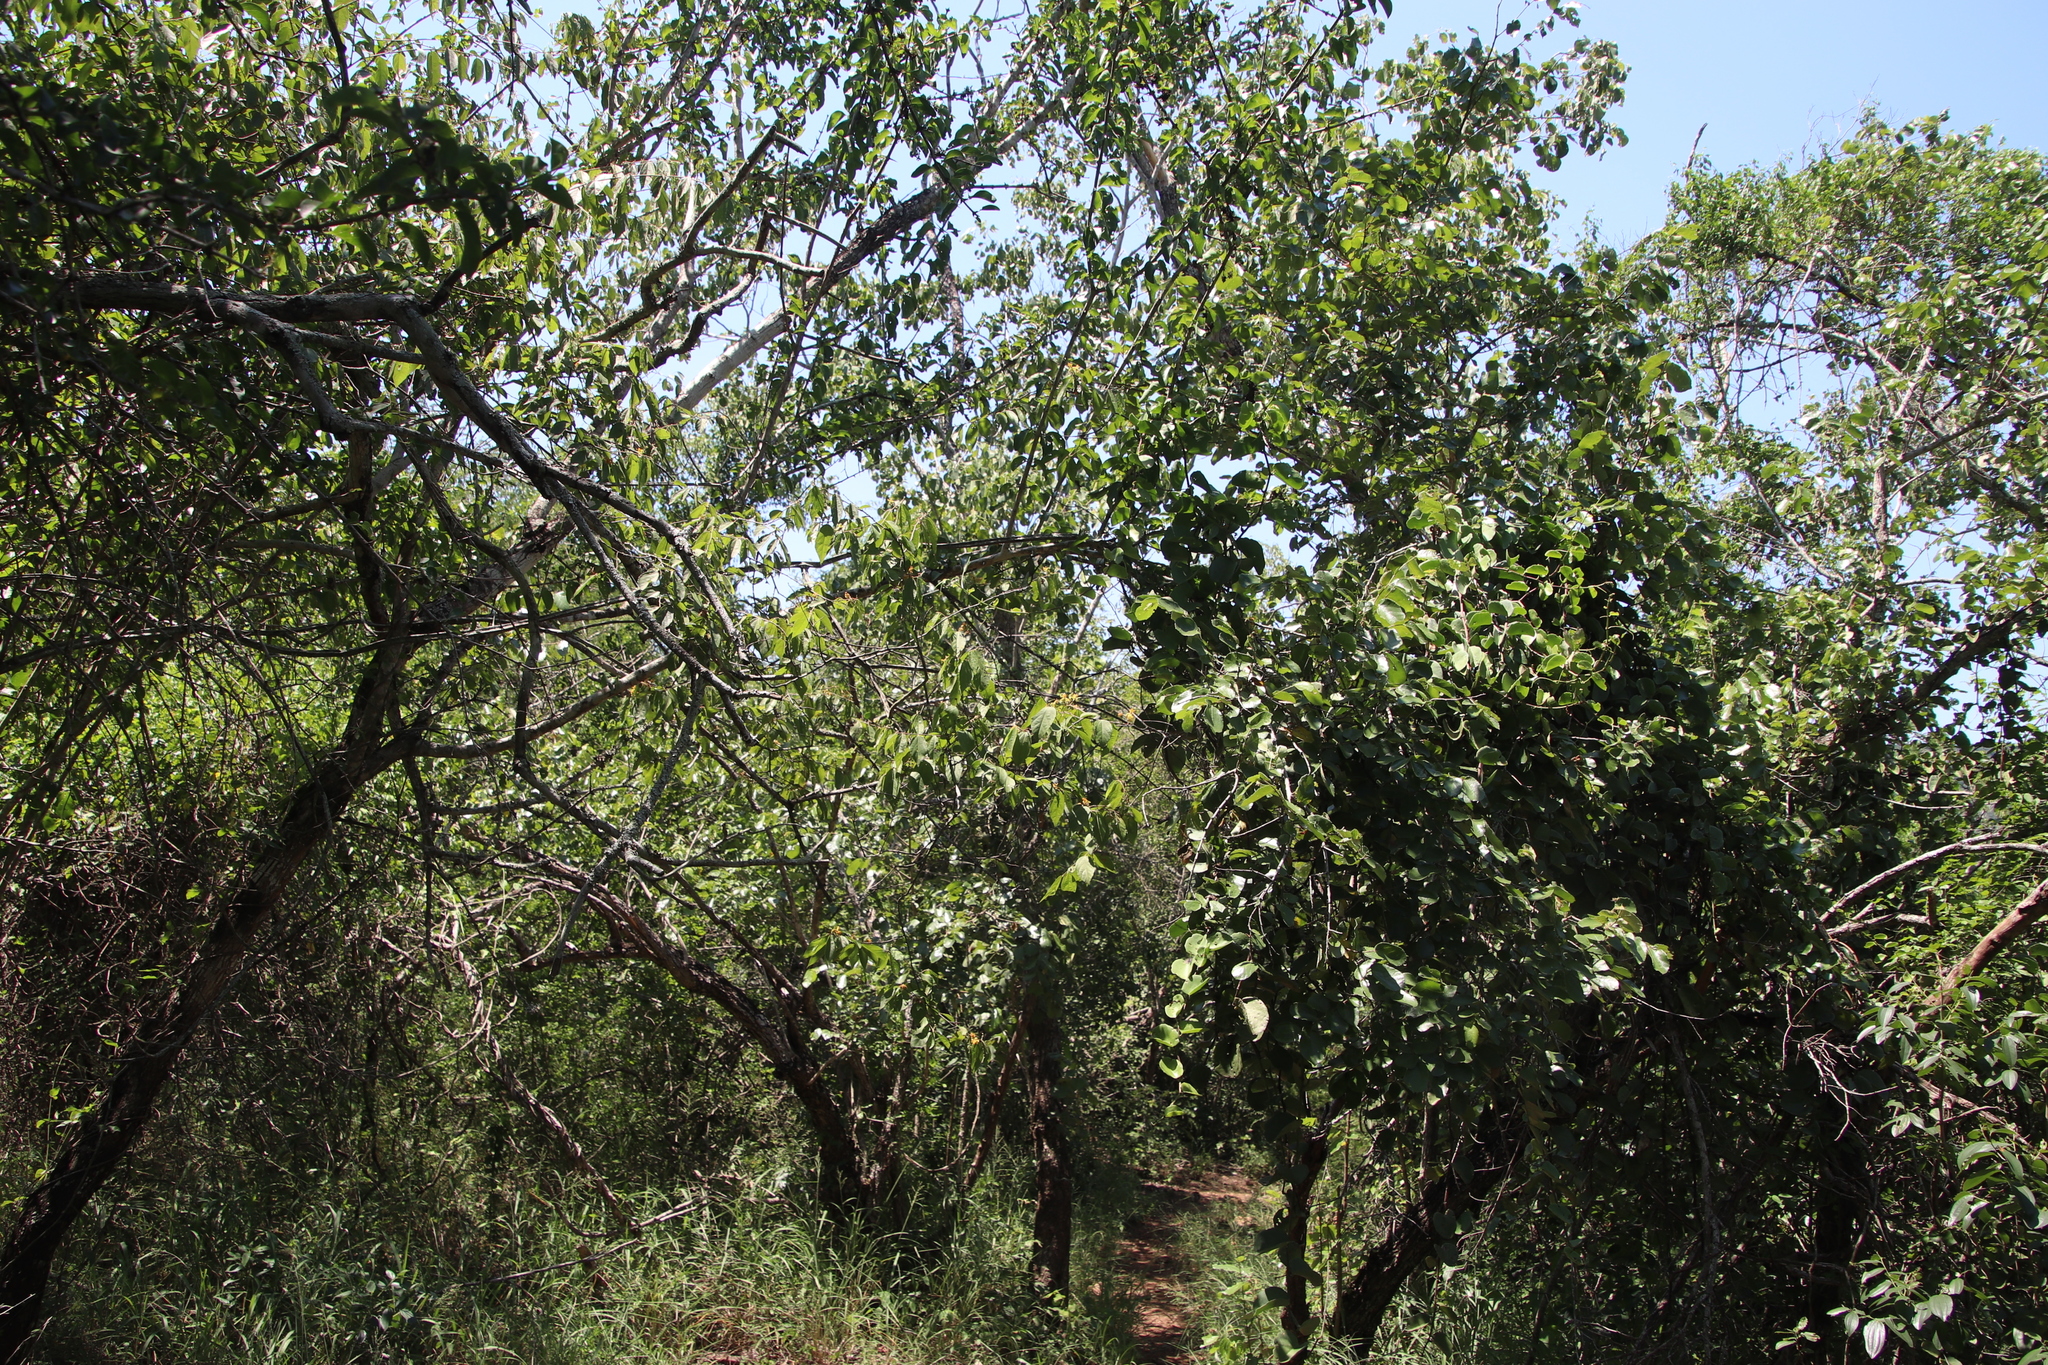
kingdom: Plantae
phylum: Tracheophyta
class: Magnoliopsida
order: Malvales
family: Malvaceae
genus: Grewia
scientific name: Grewia flava
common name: Brandy bush
